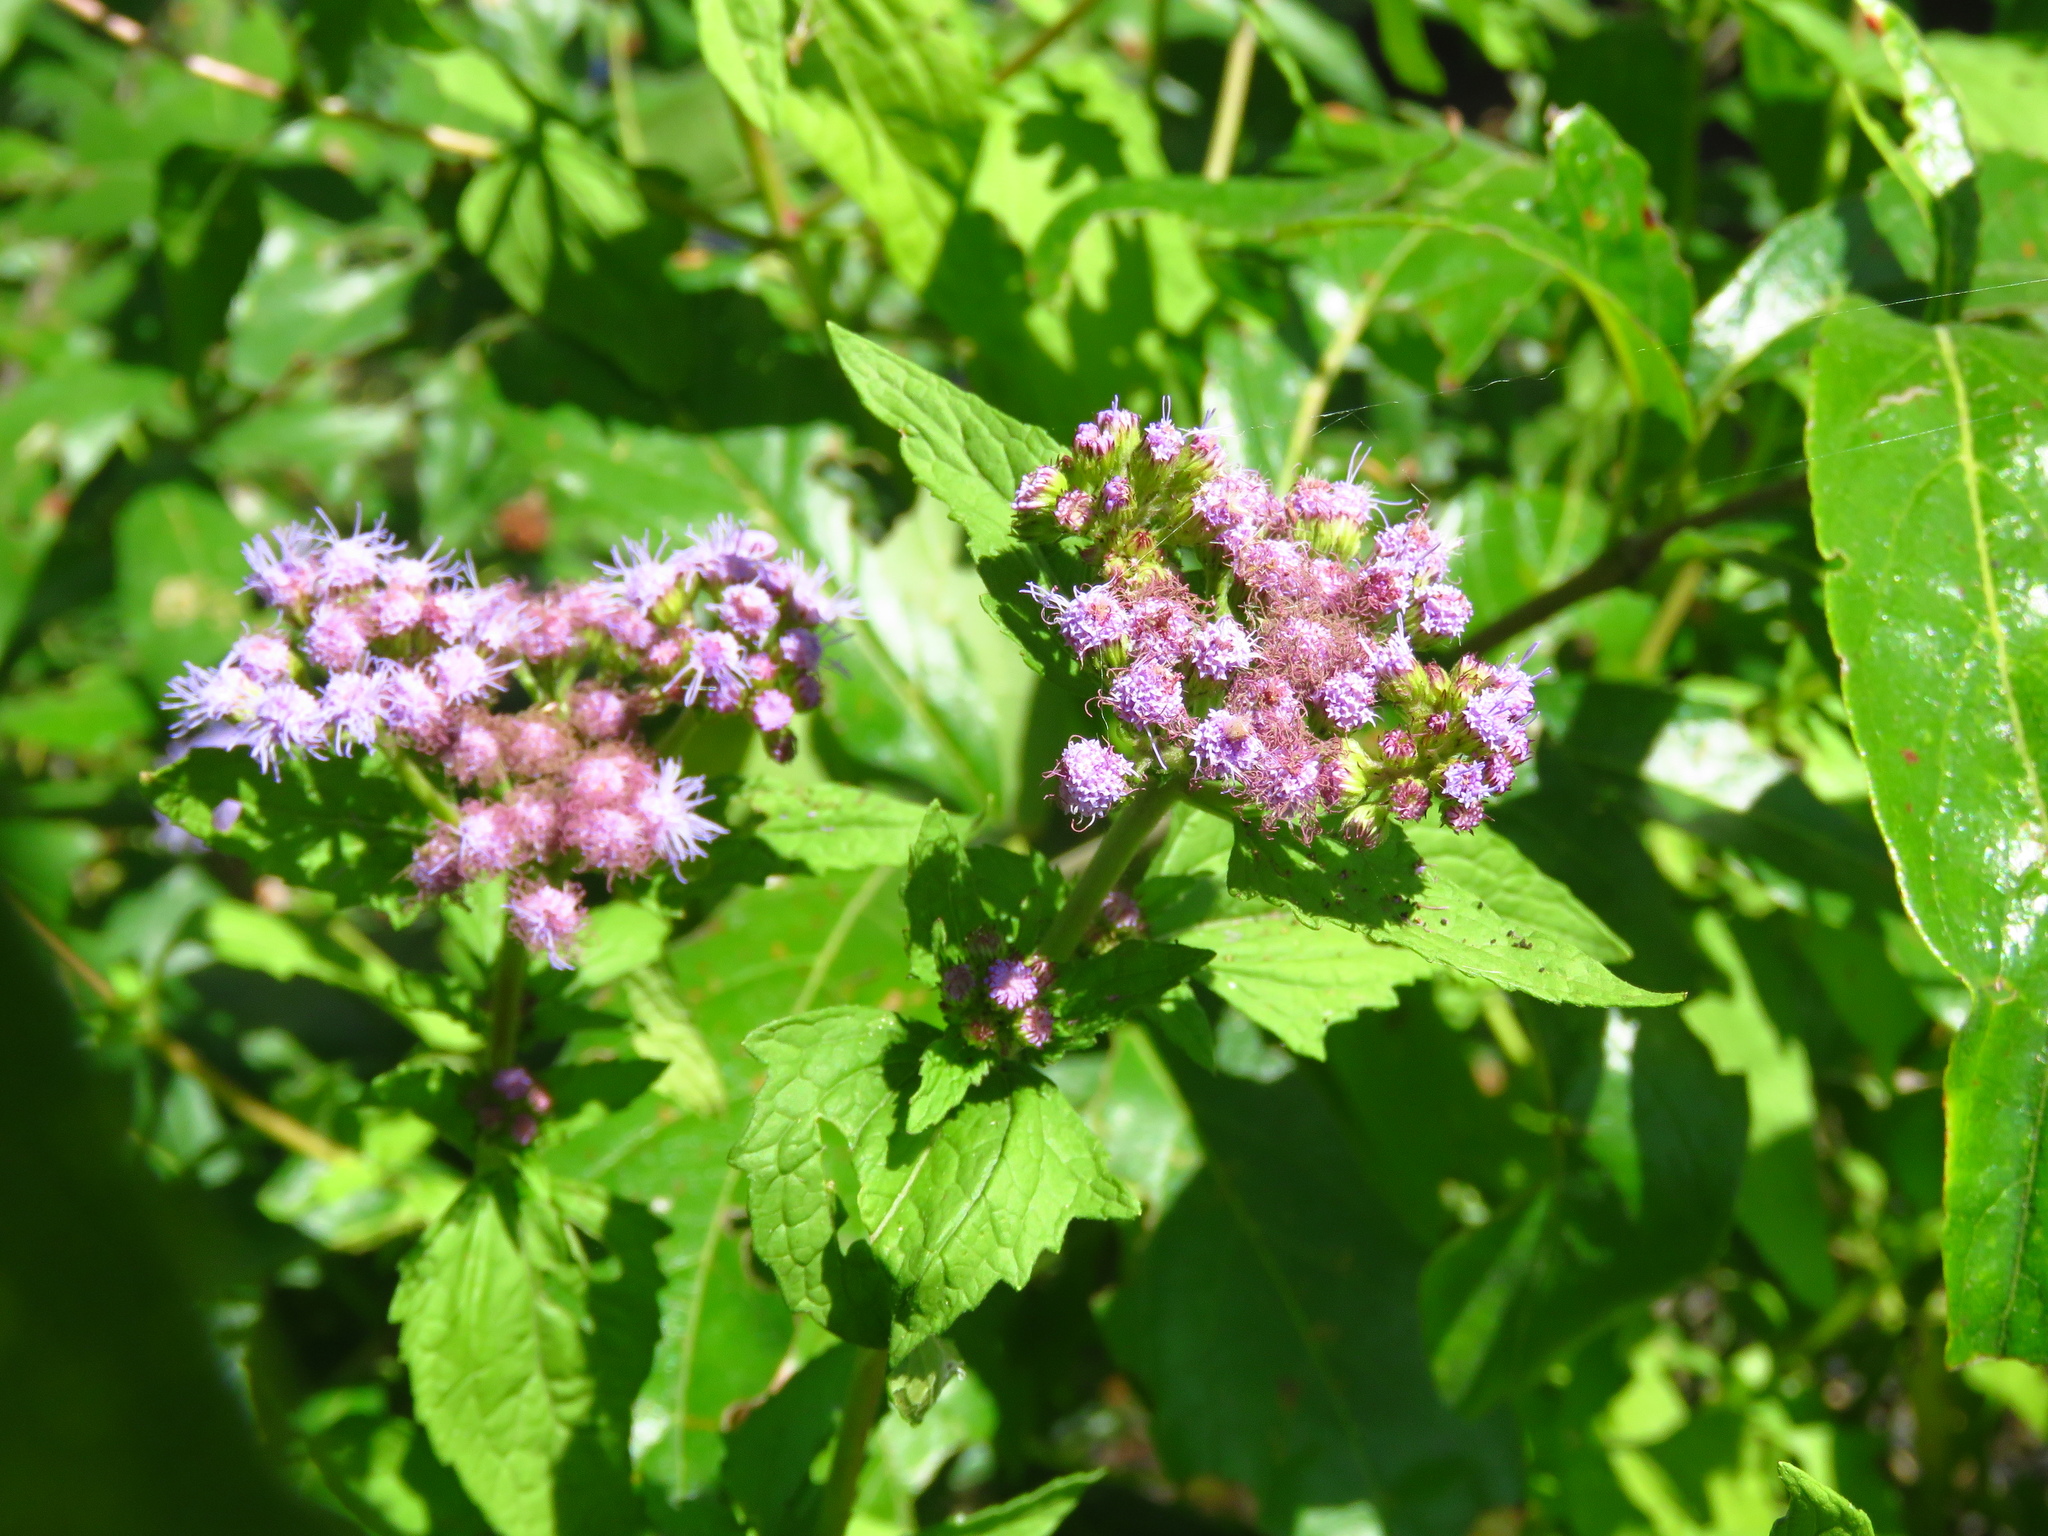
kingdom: Plantae
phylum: Tracheophyta
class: Magnoliopsida
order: Asterales
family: Asteraceae
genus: Conoclinium
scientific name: Conoclinium coelestinum
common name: Blue mistflower
